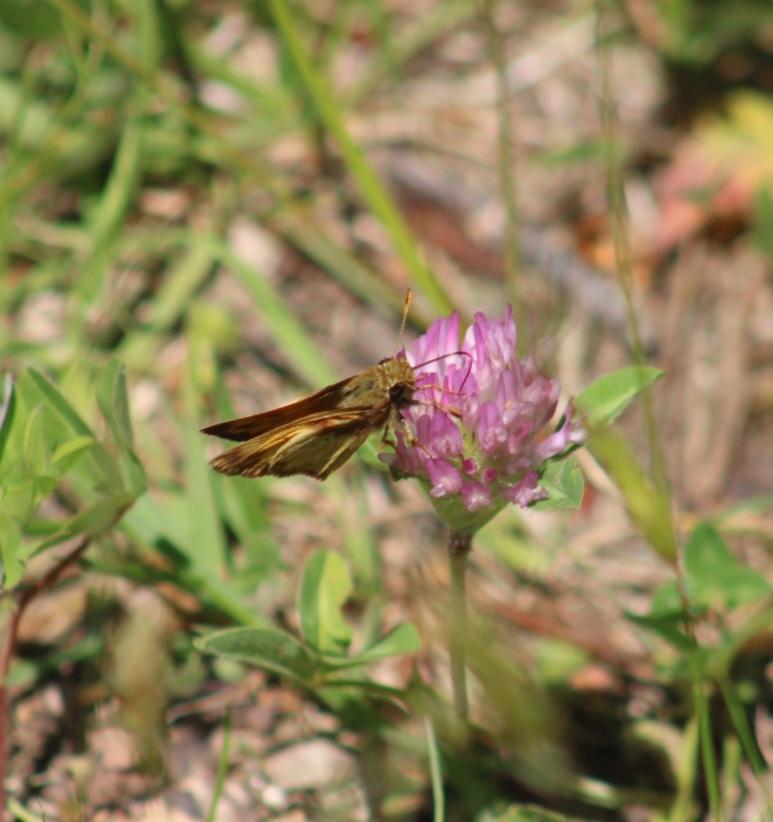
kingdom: Animalia
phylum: Arthropoda
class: Insecta
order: Lepidoptera
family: Hesperiidae
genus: Lon
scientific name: Lon zabulon
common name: Zabulon skipper
